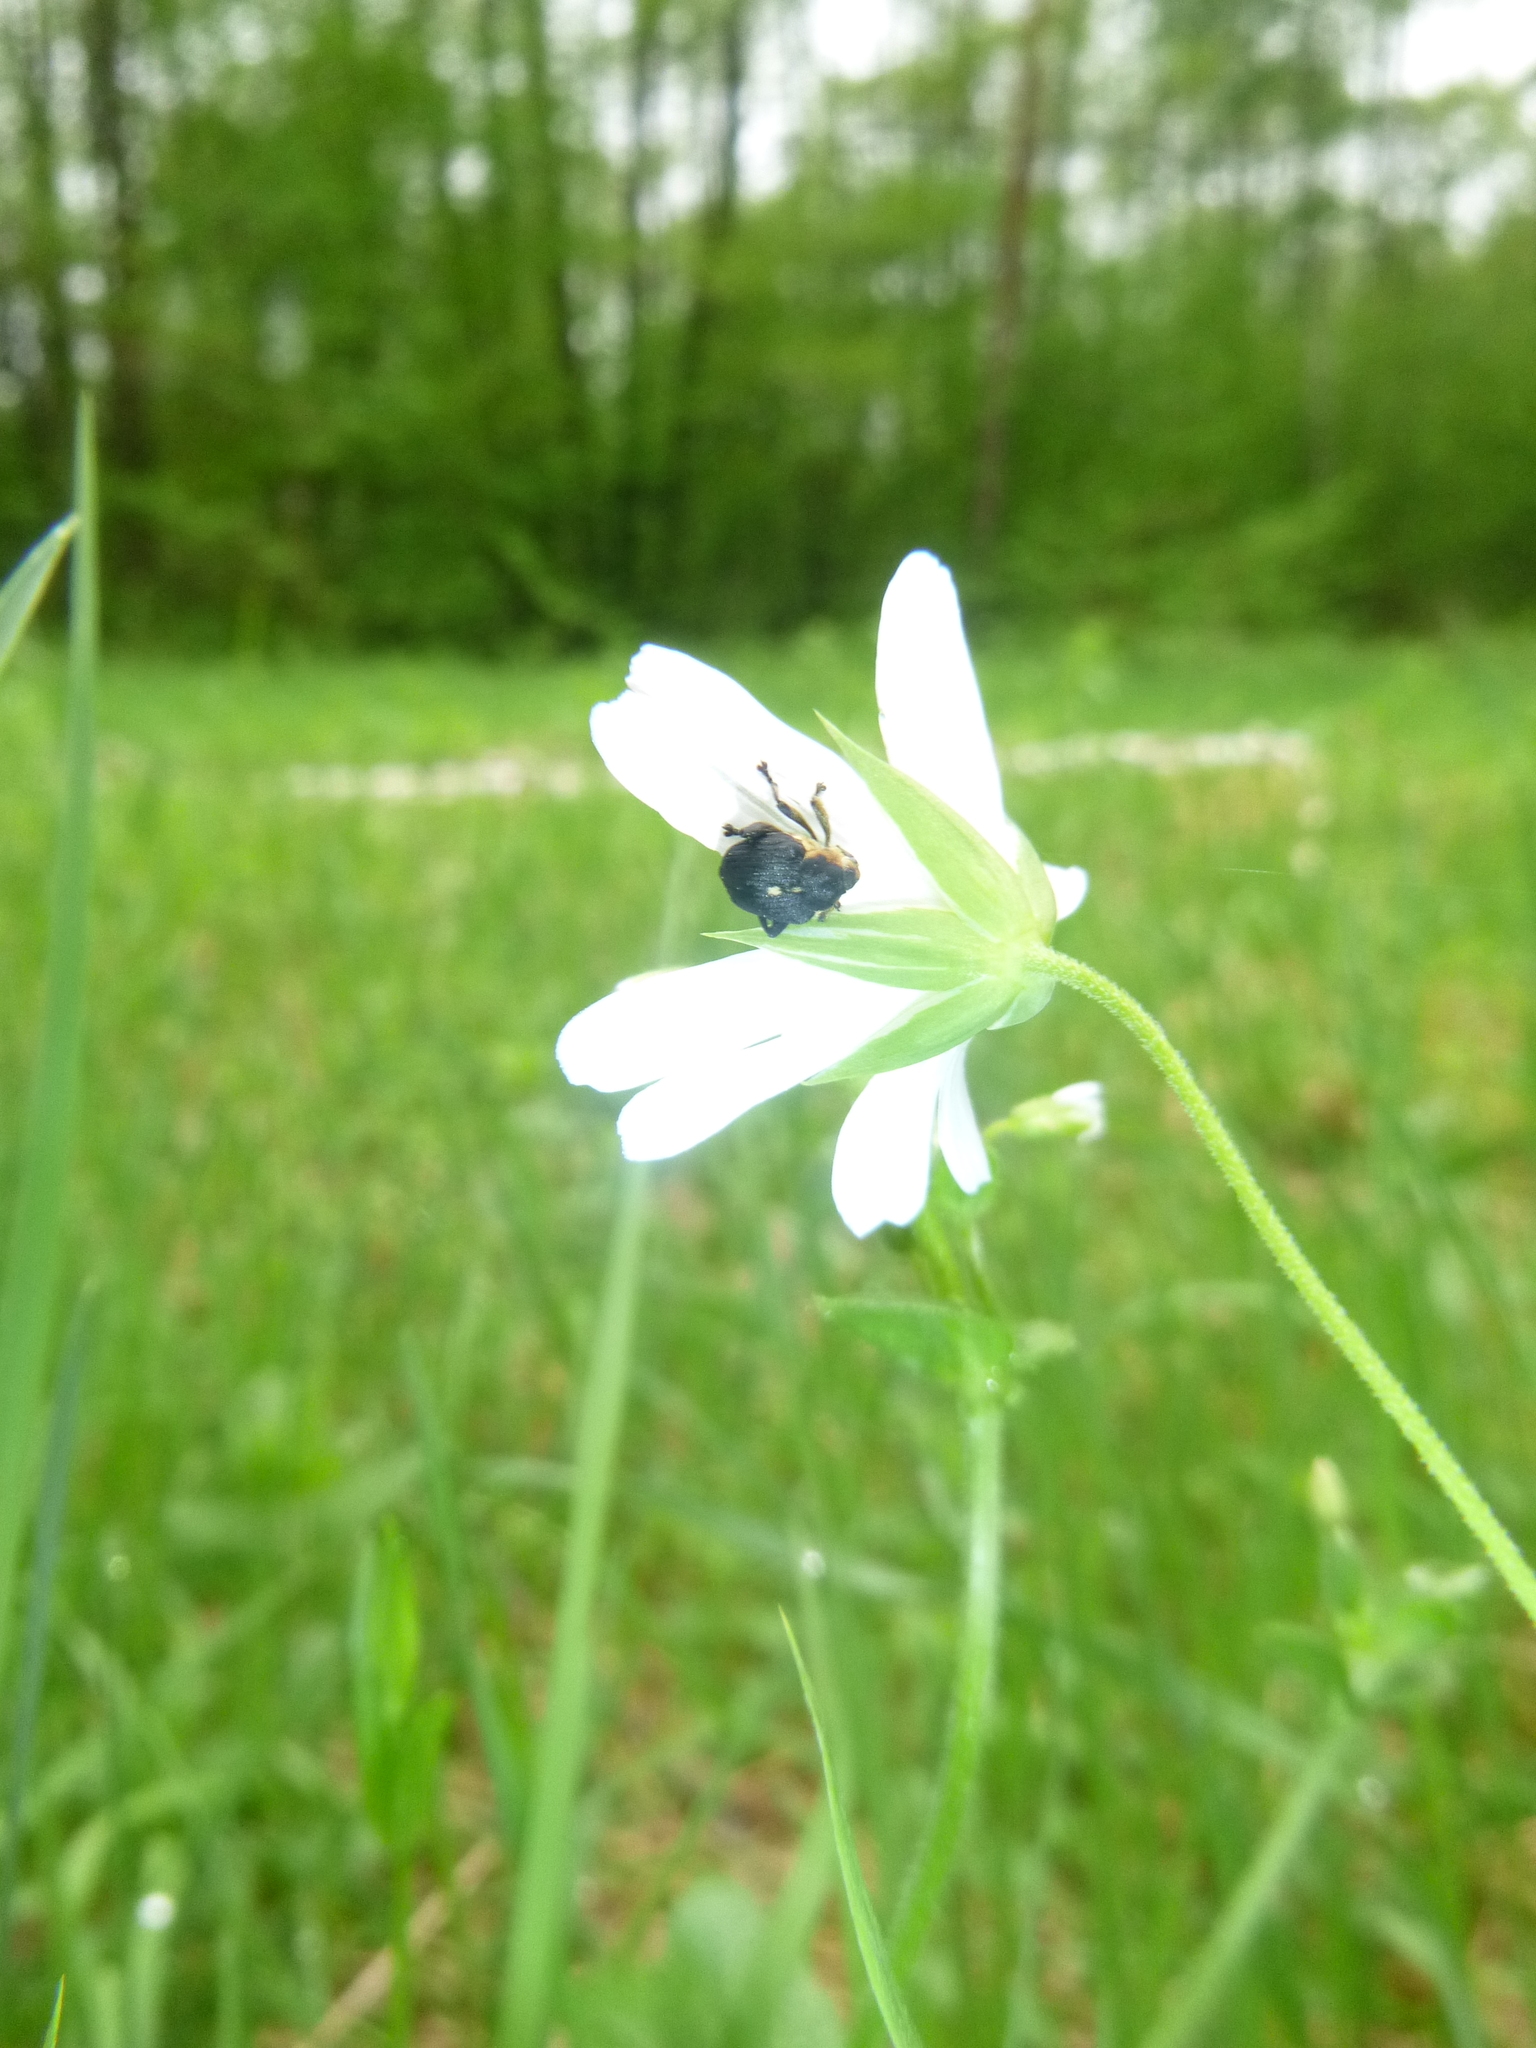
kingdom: Animalia
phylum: Arthropoda
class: Insecta
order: Coleoptera
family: Curculionidae
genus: Mononychus
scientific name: Mononychus punctumalbum
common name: Iris weevil
